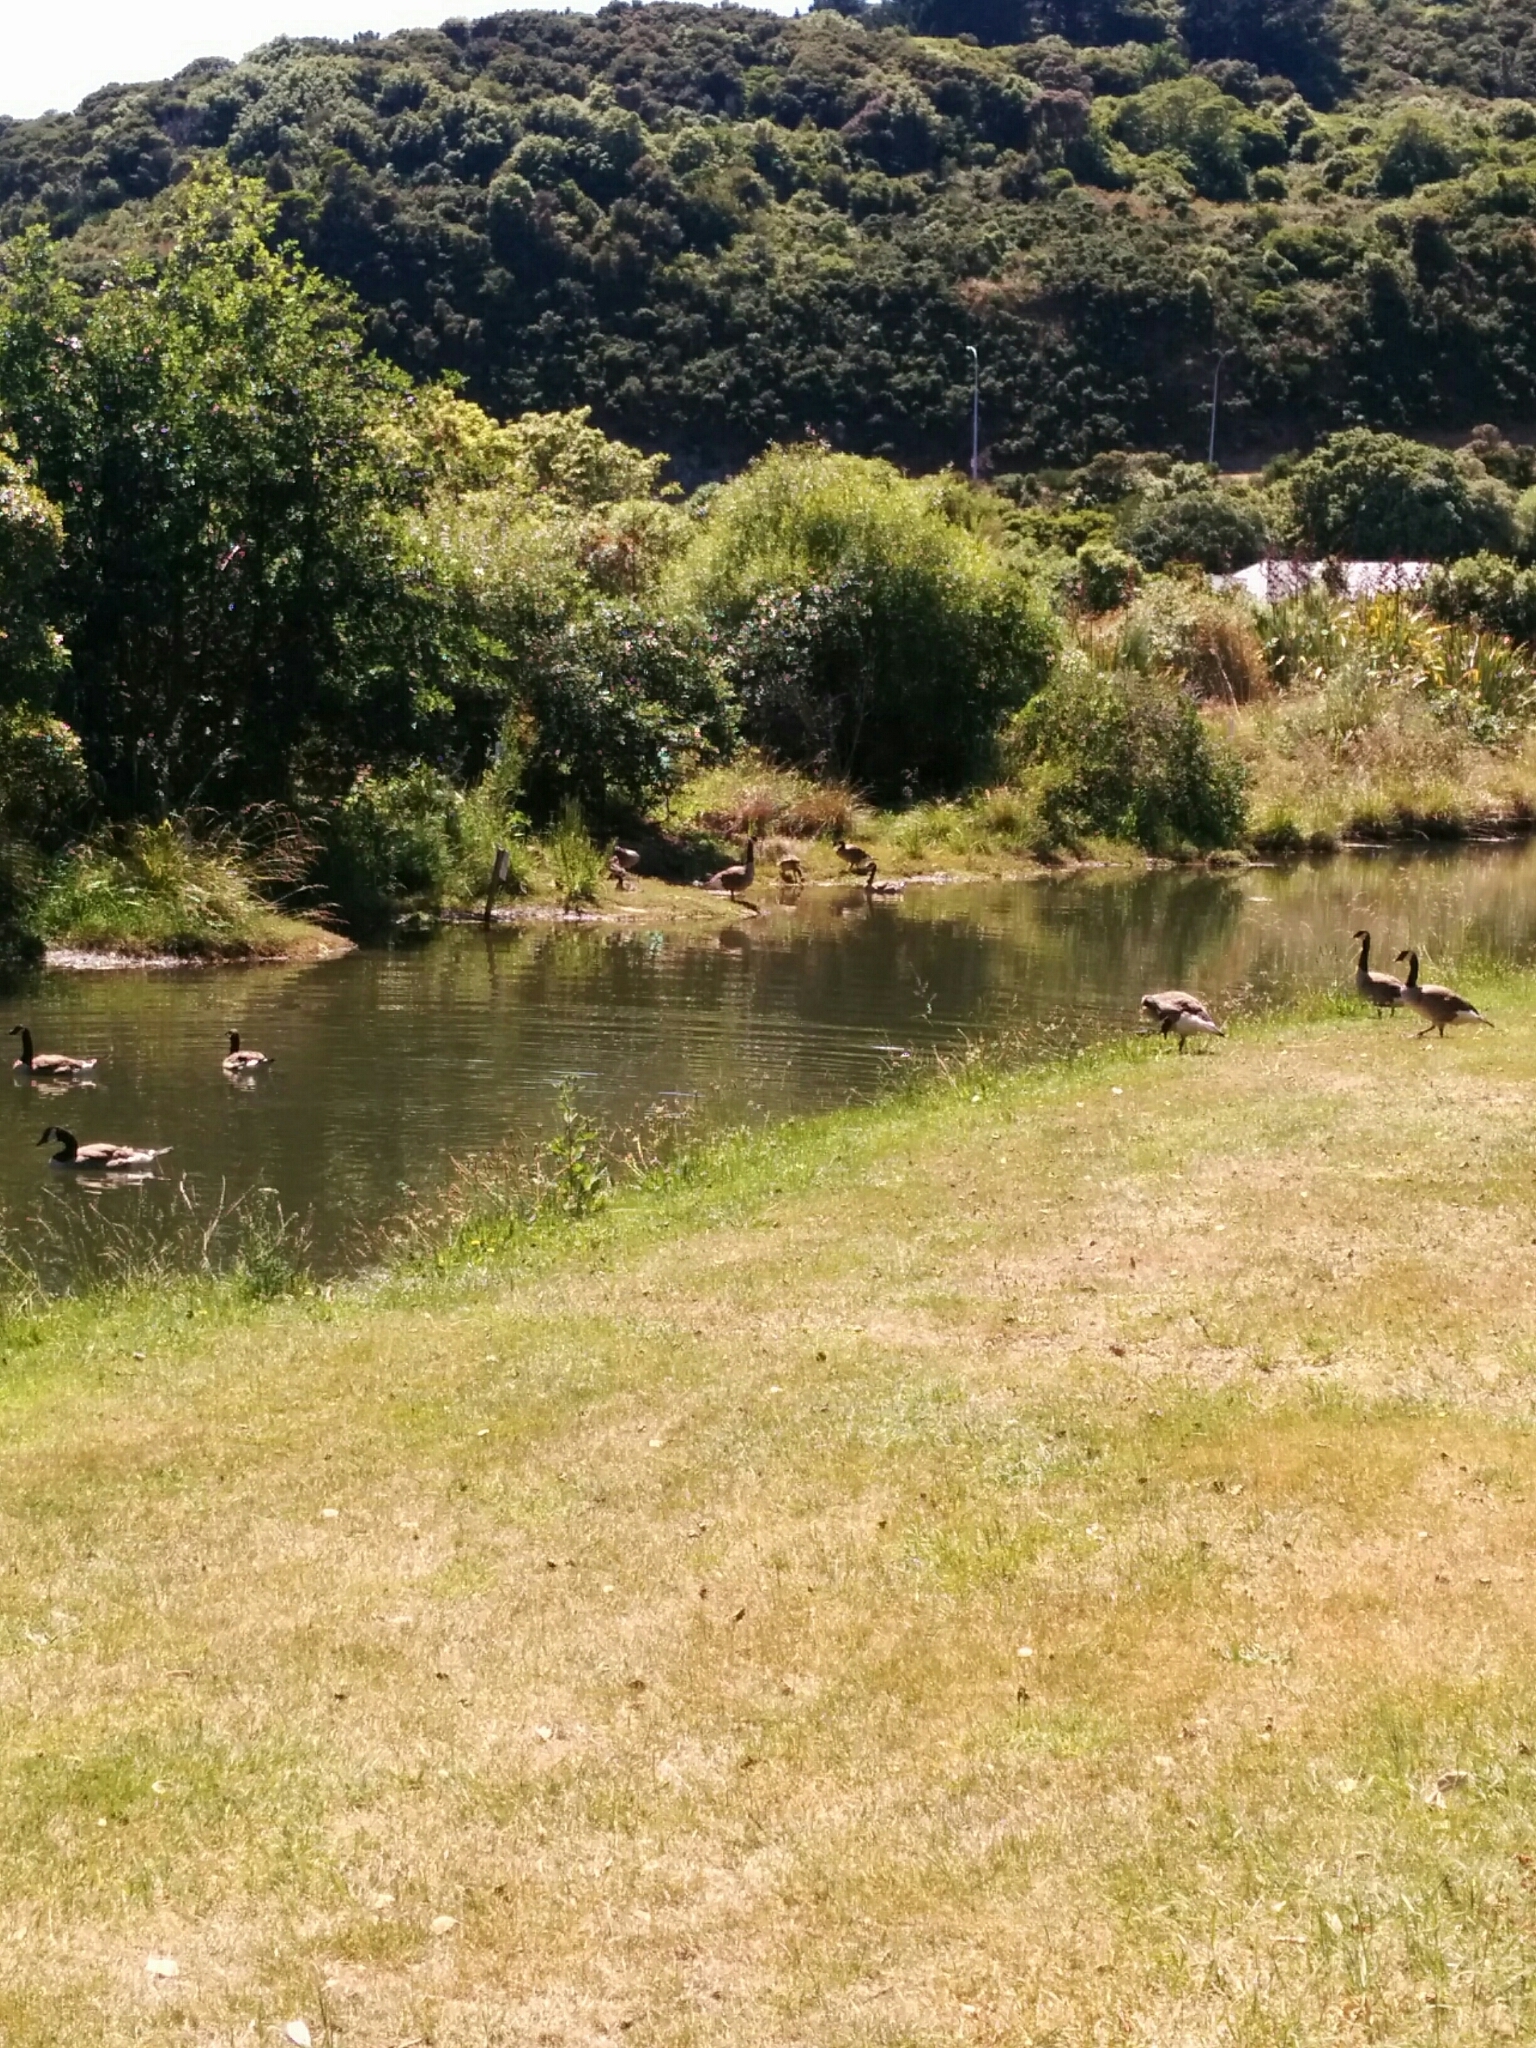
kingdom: Animalia
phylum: Chordata
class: Aves
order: Anseriformes
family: Anatidae
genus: Branta
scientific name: Branta canadensis
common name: Canada goose
